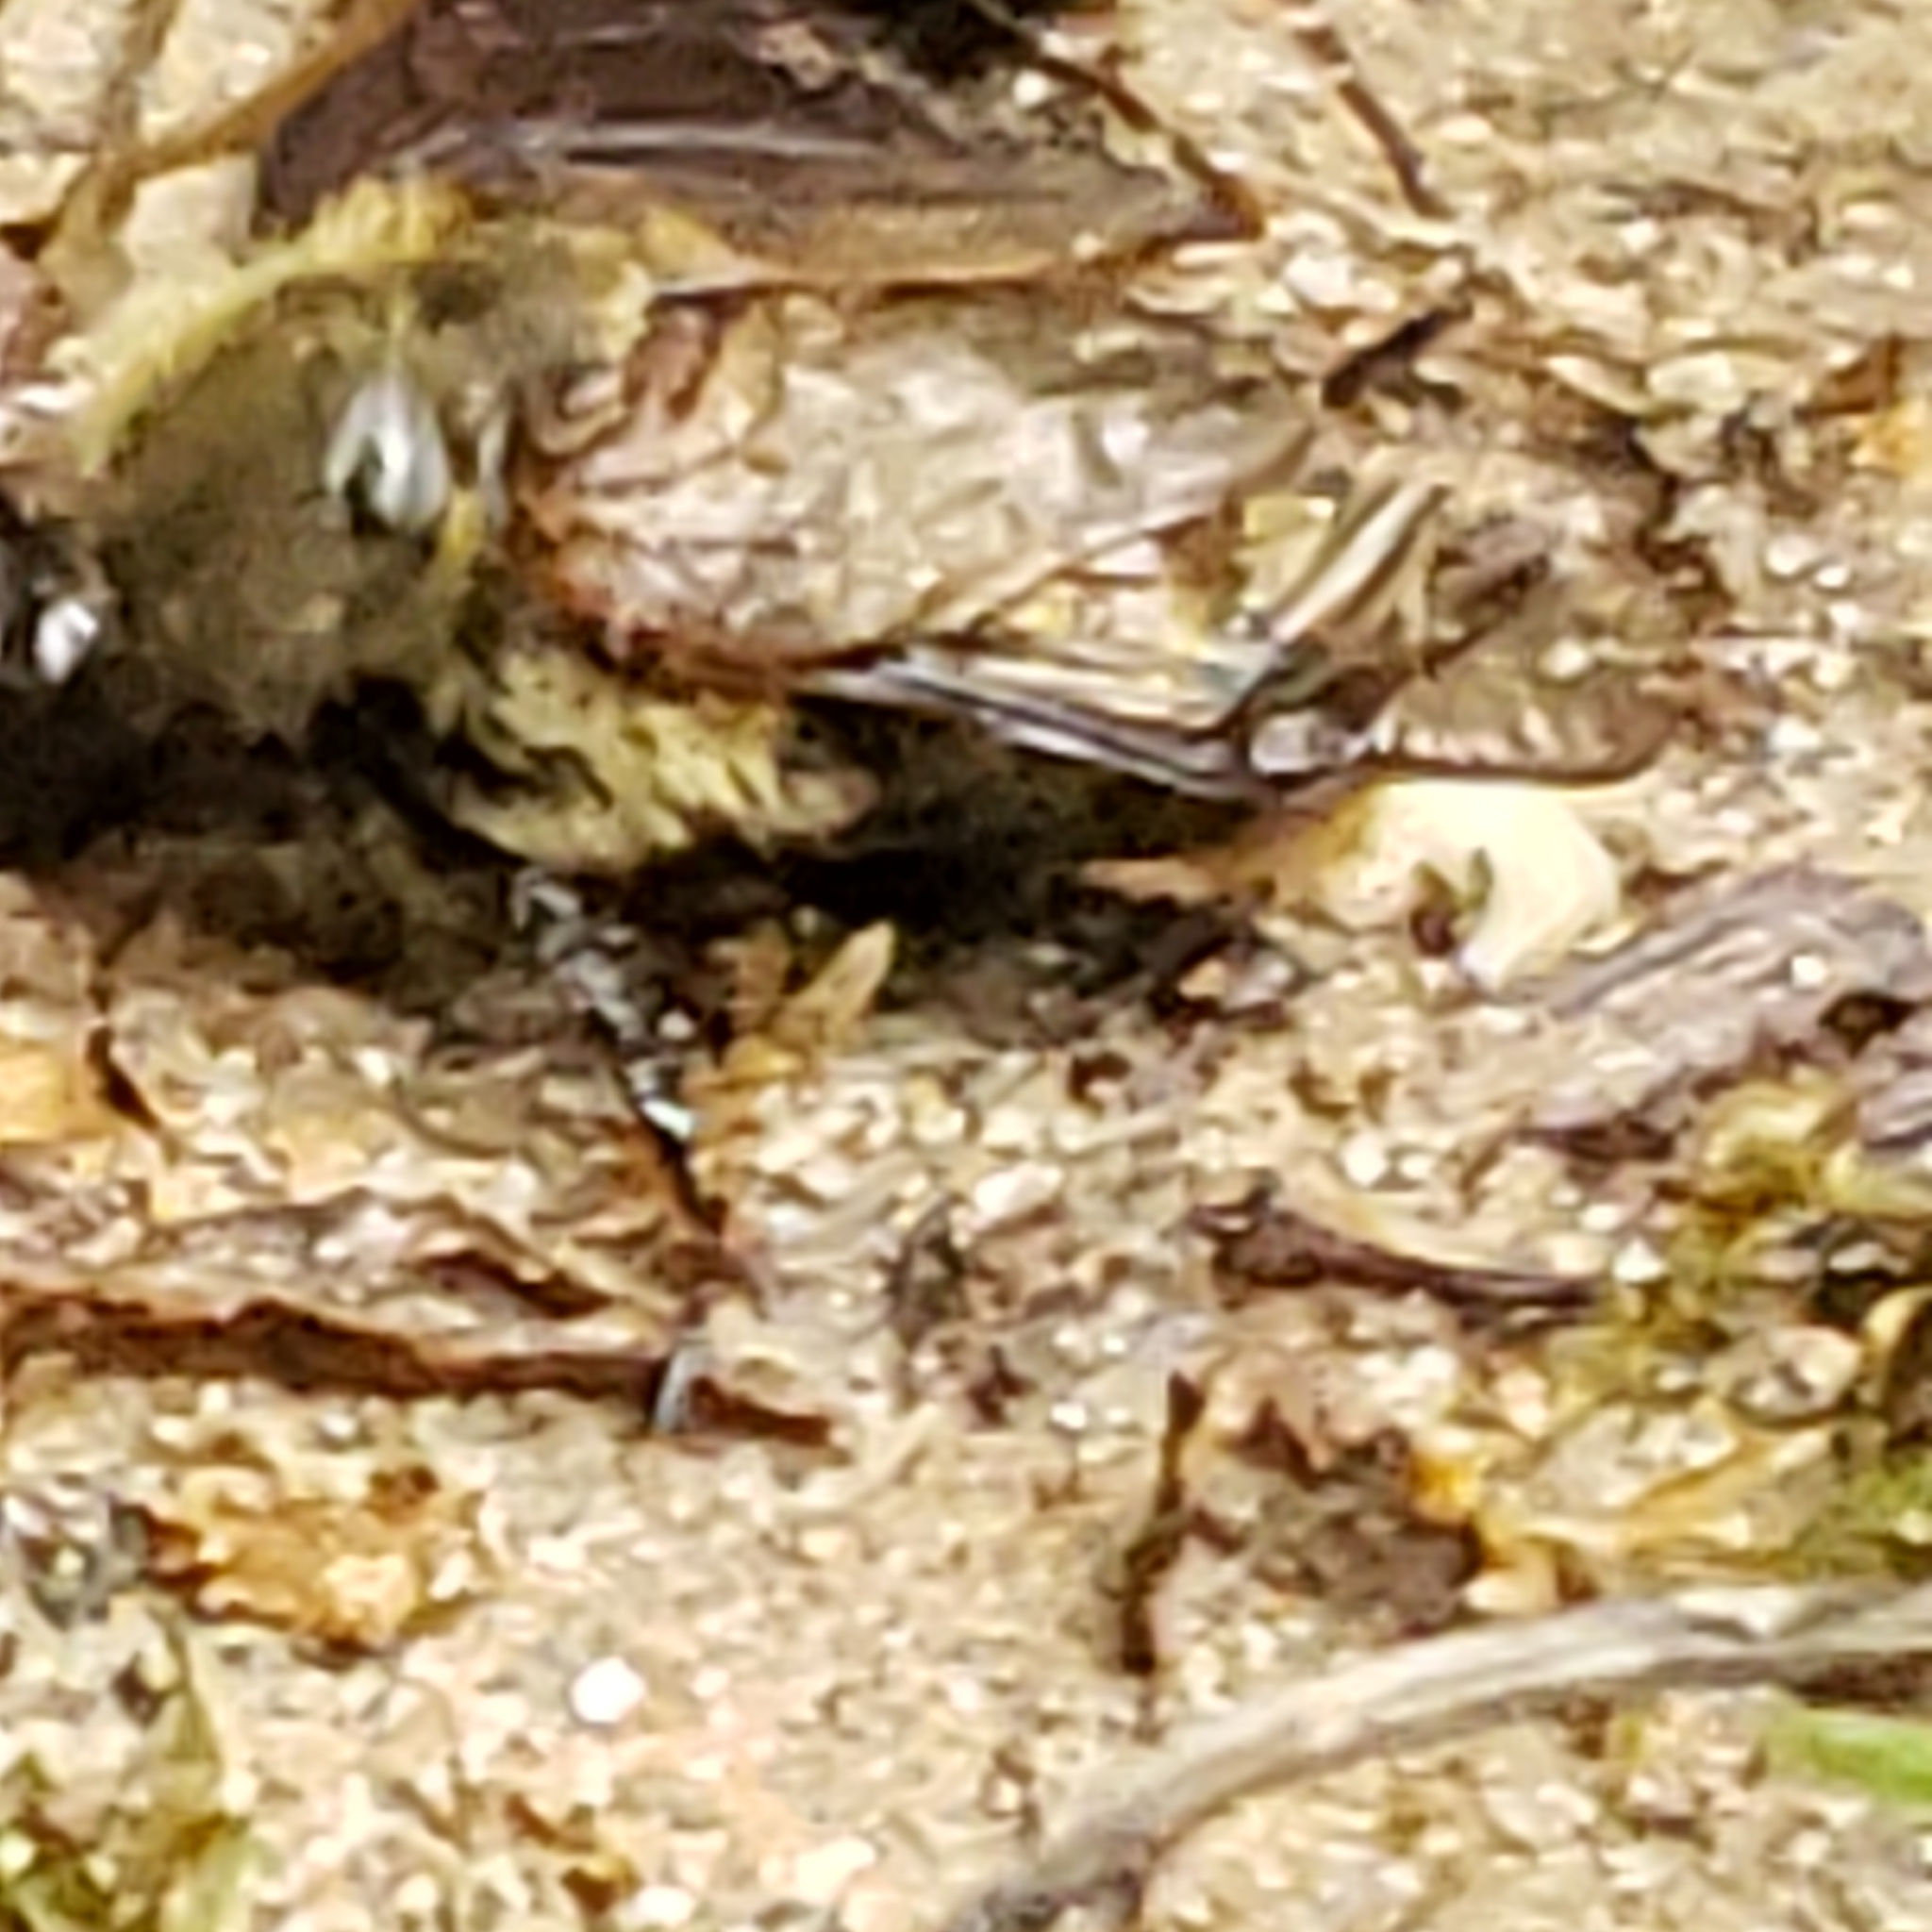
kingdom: Animalia
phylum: Arthropoda
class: Insecta
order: Coleoptera
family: Glaphyridae
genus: Lichnanthe
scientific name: Lichnanthe vulpina
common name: Cranberry root grub
